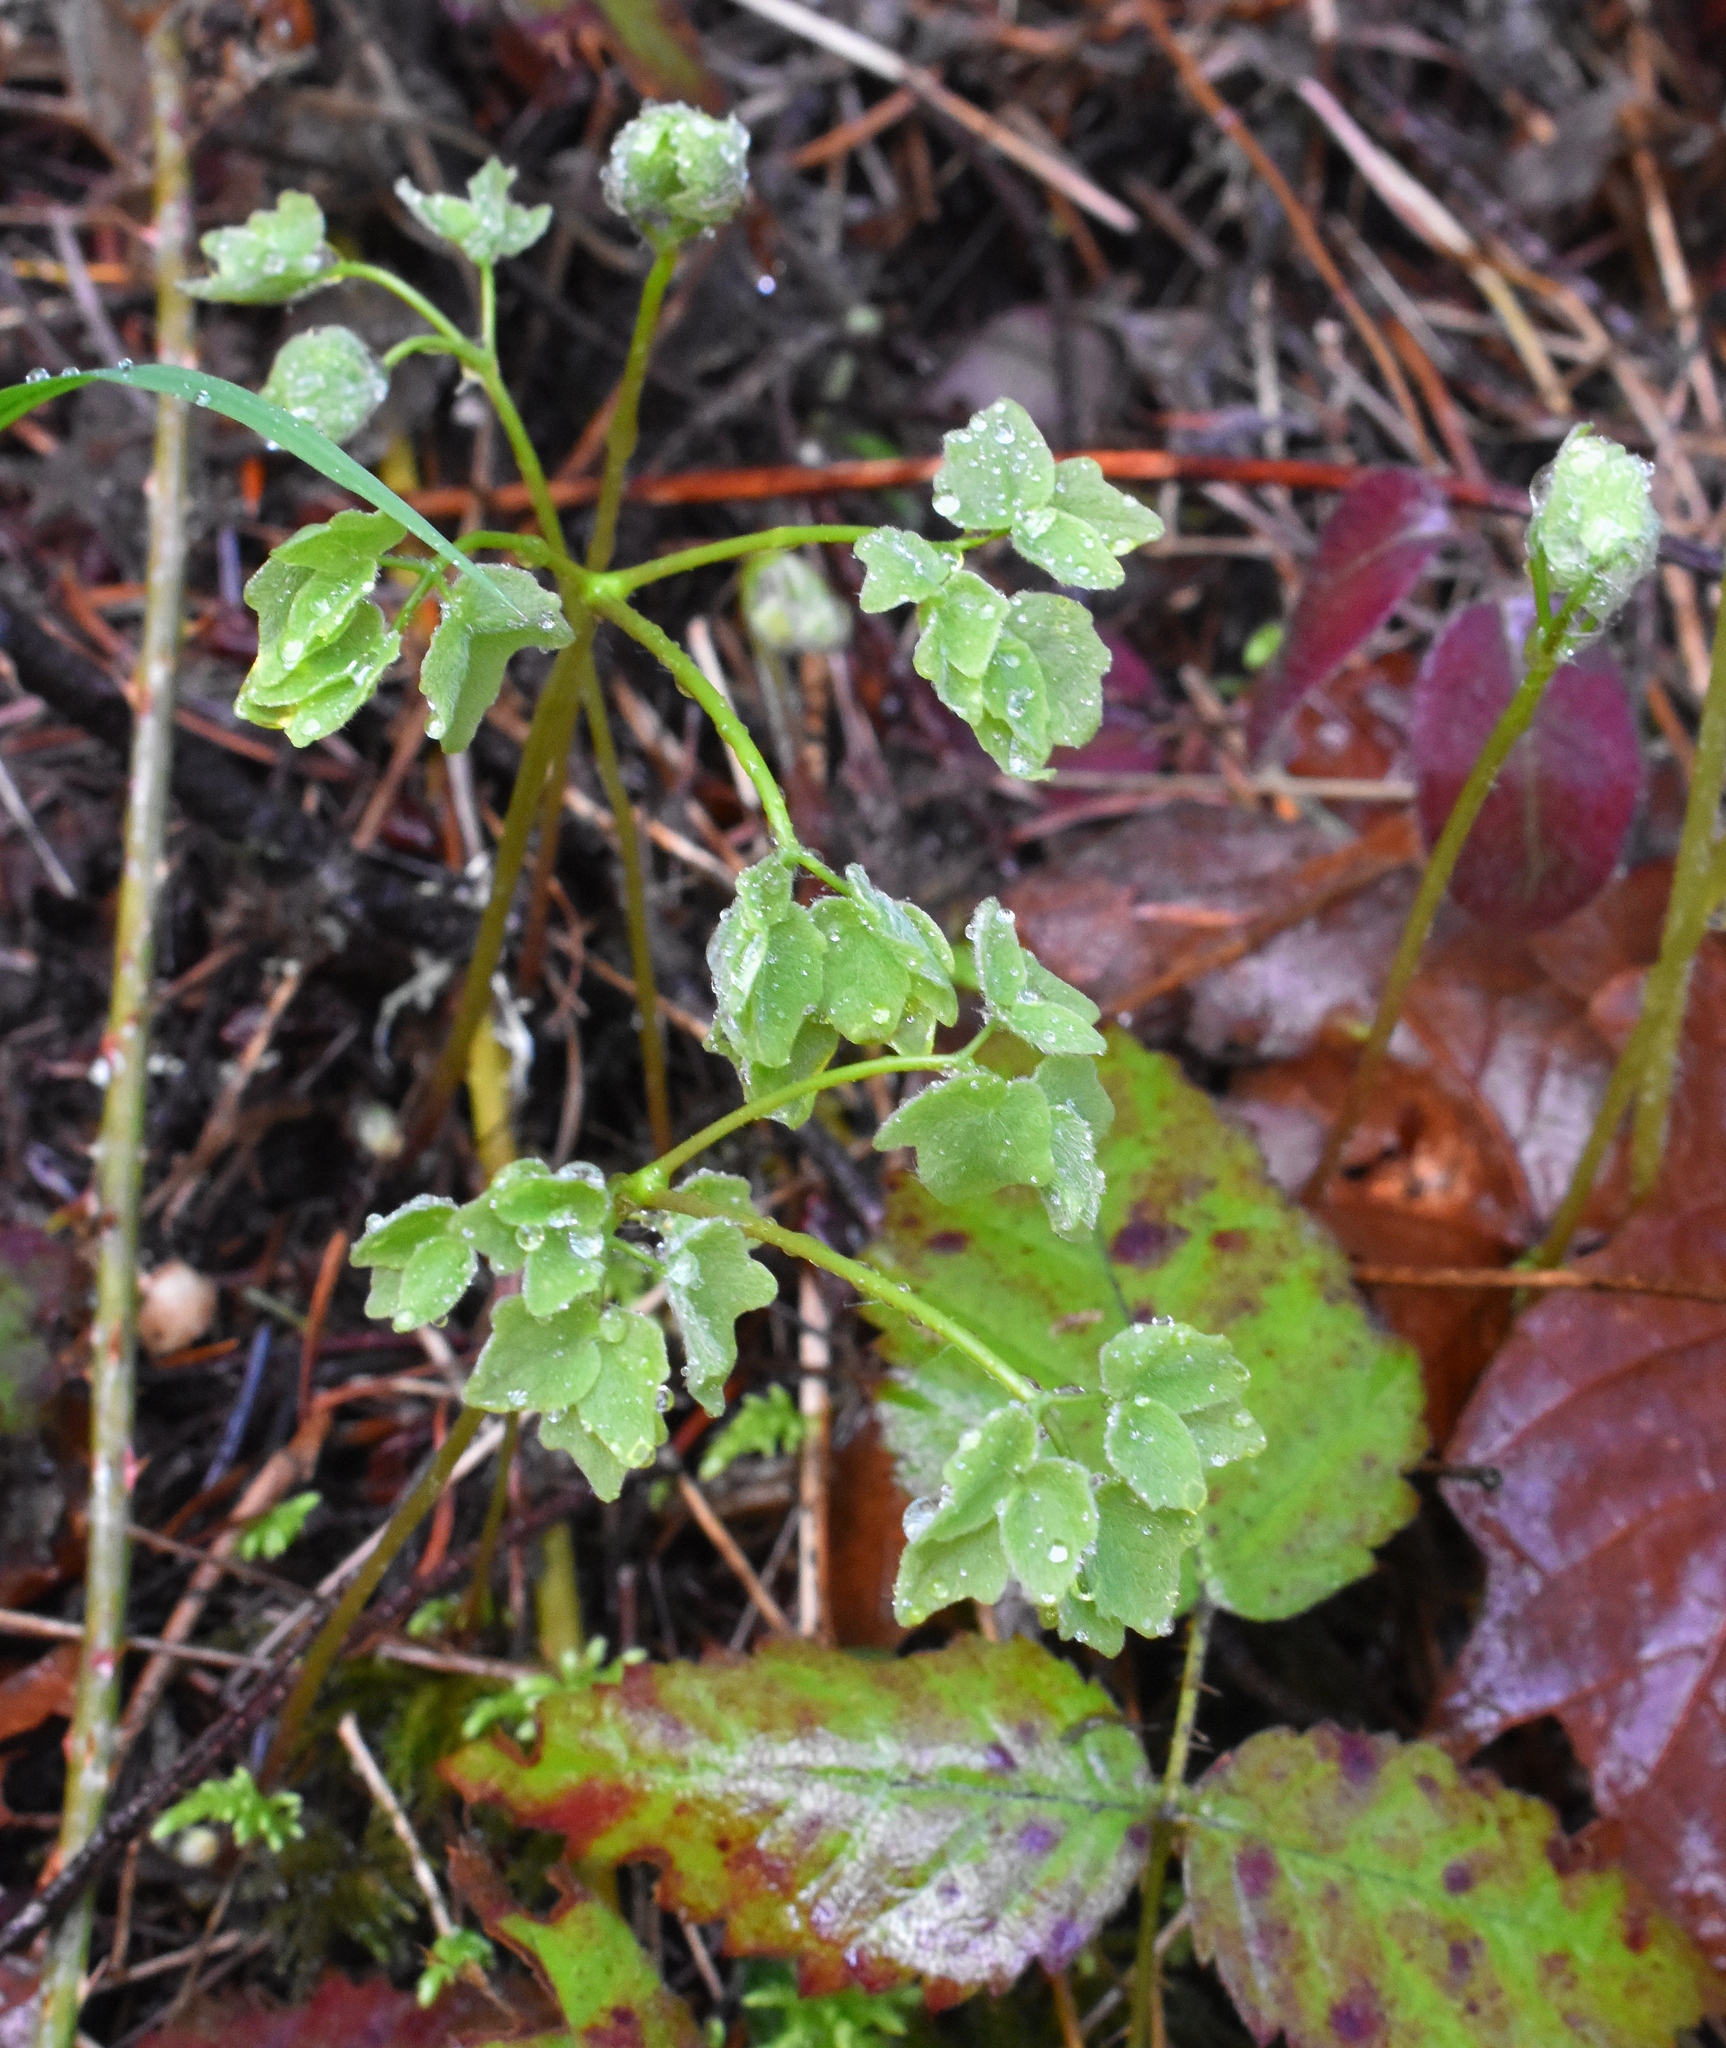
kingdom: Plantae
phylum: Tracheophyta
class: Magnoliopsida
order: Ranunculales
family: Berberidaceae
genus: Vancouveria
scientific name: Vancouveria hexandra
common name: Northern inside-out-flower
